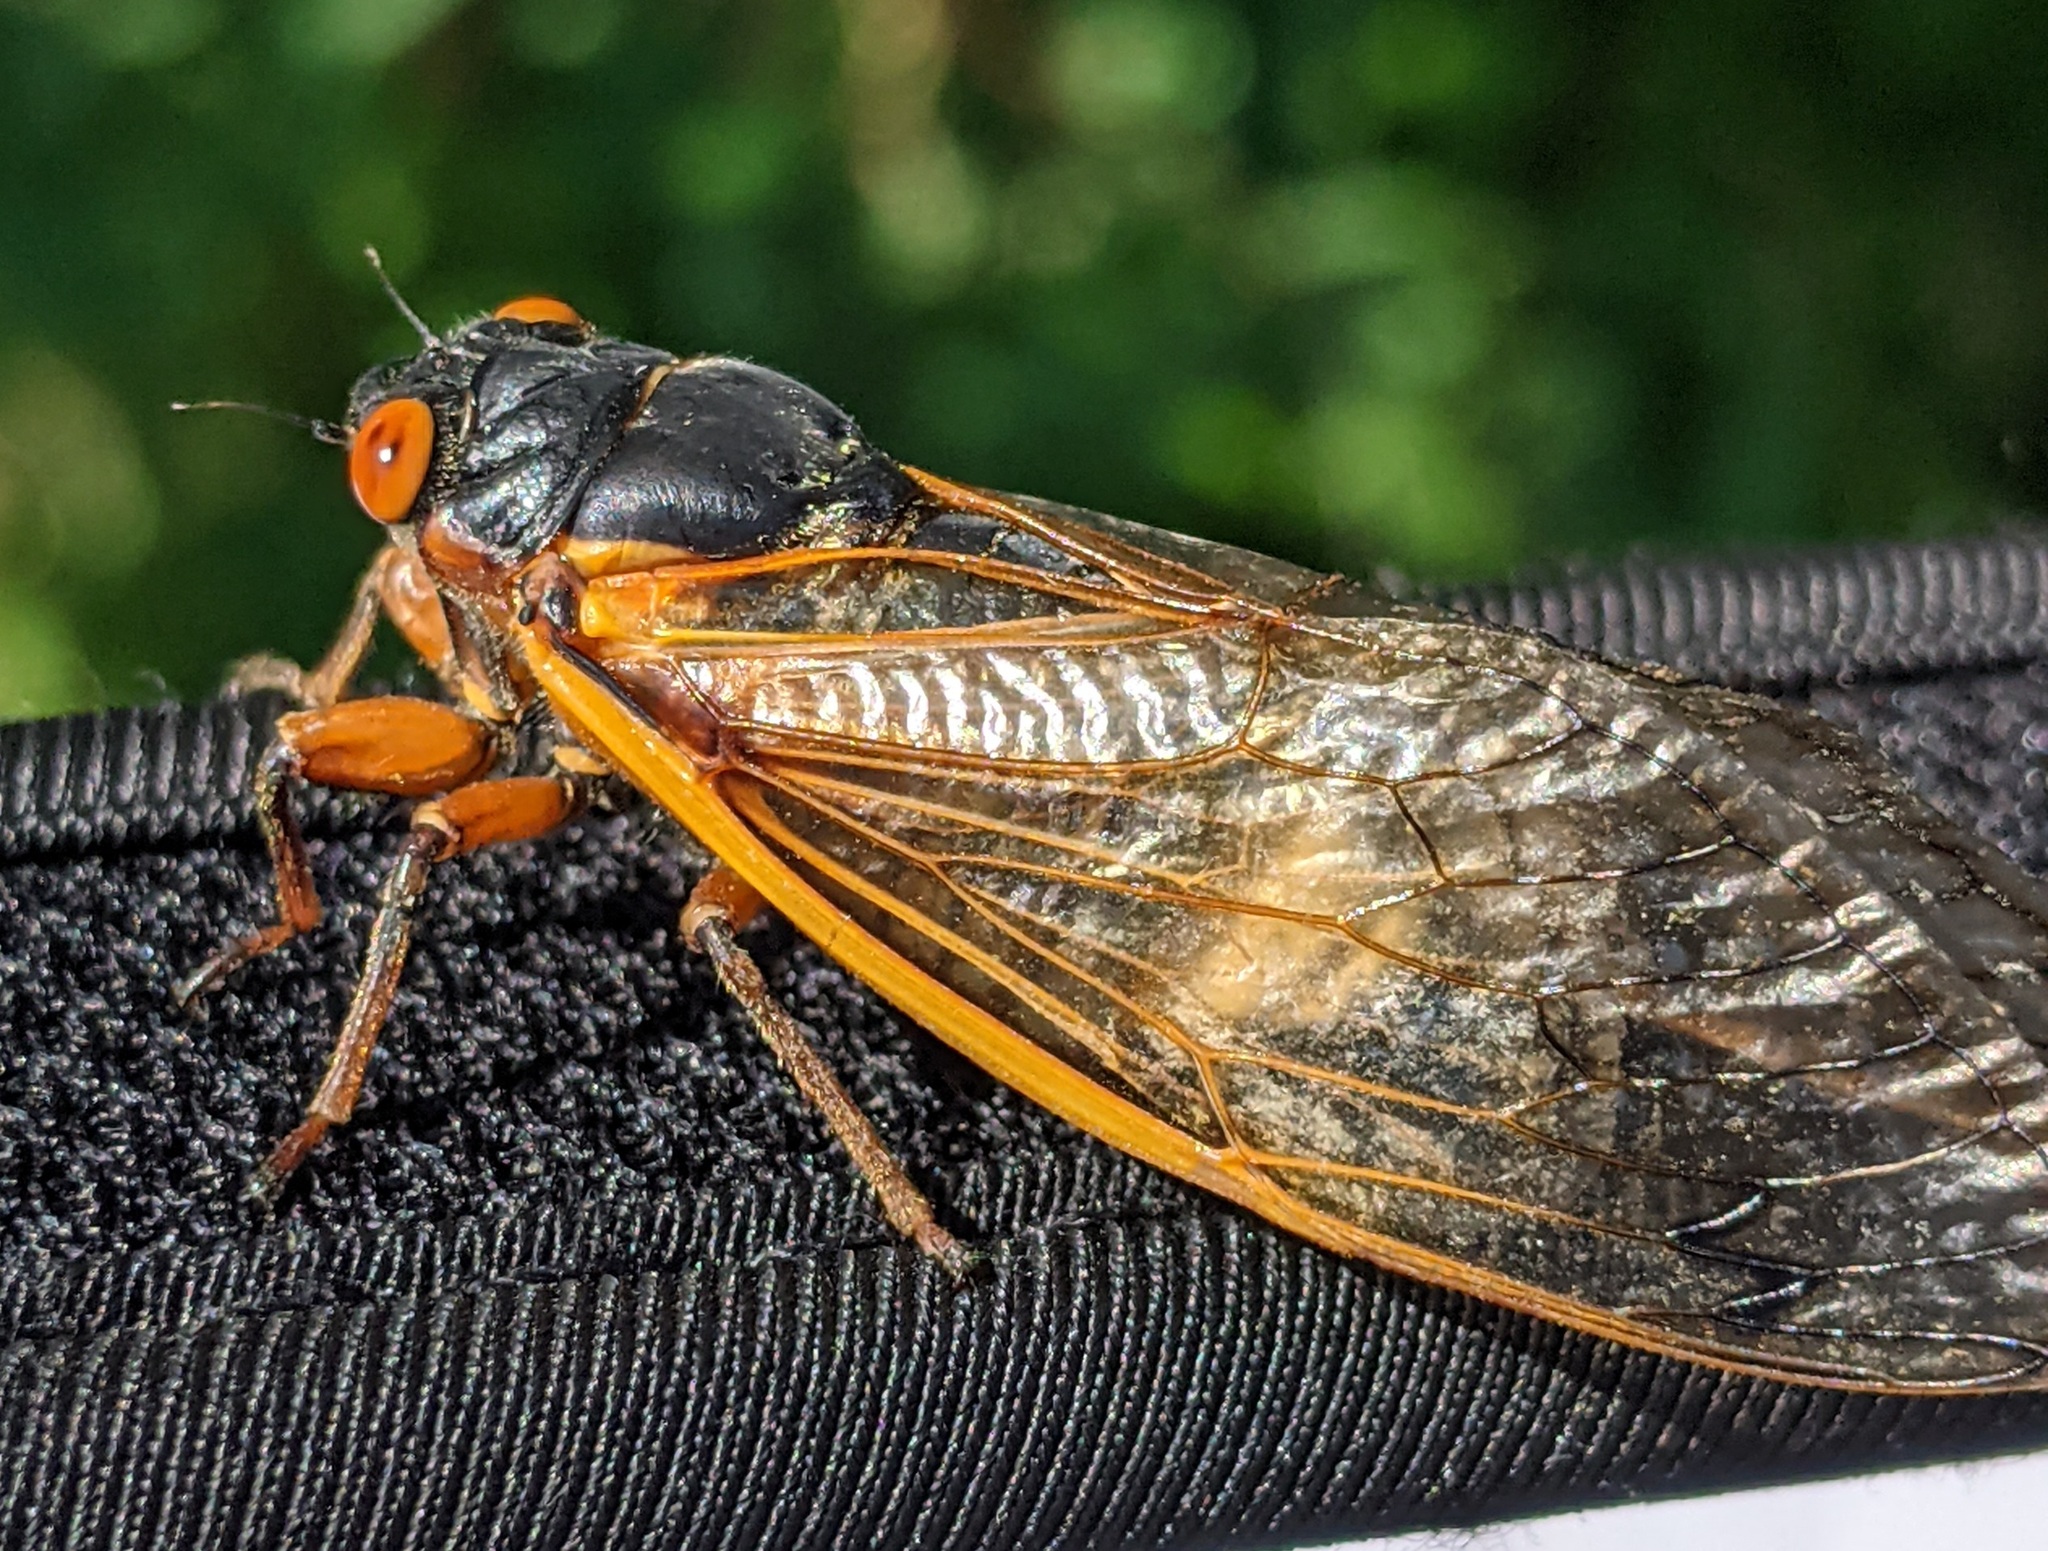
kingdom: Animalia
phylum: Arthropoda
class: Insecta
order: Hemiptera
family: Cicadidae
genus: Magicicada
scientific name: Magicicada septendecim
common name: Periodical cicada
